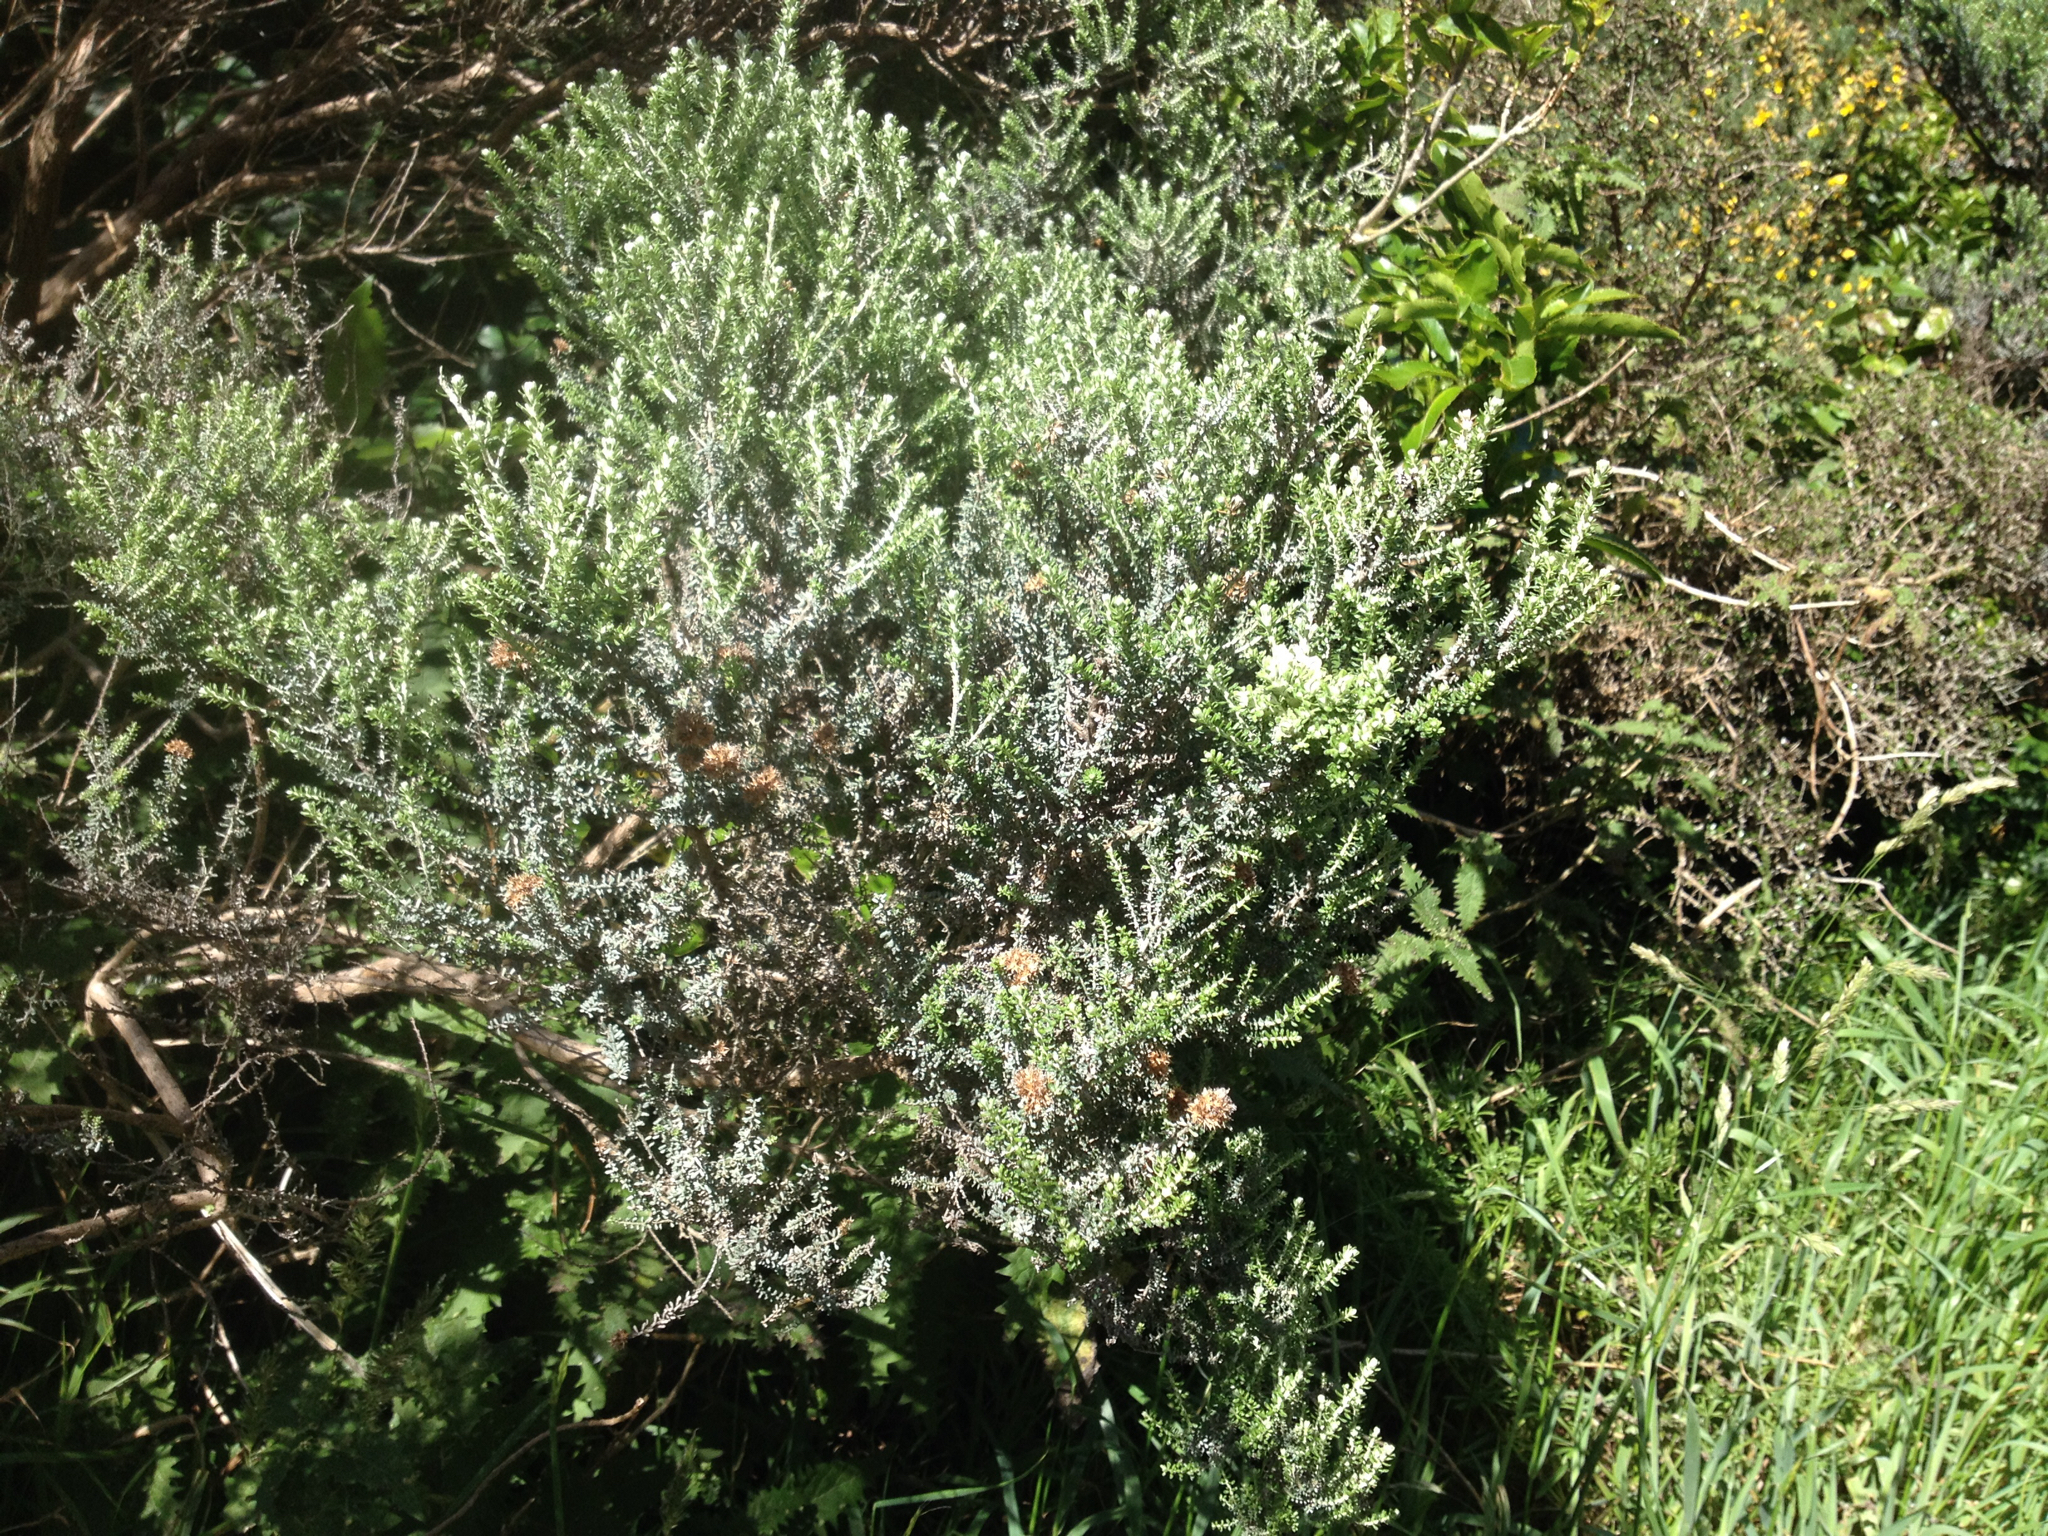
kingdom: Plantae
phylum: Tracheophyta
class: Magnoliopsida
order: Asterales
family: Asteraceae
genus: Ozothamnus
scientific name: Ozothamnus leptophyllus
